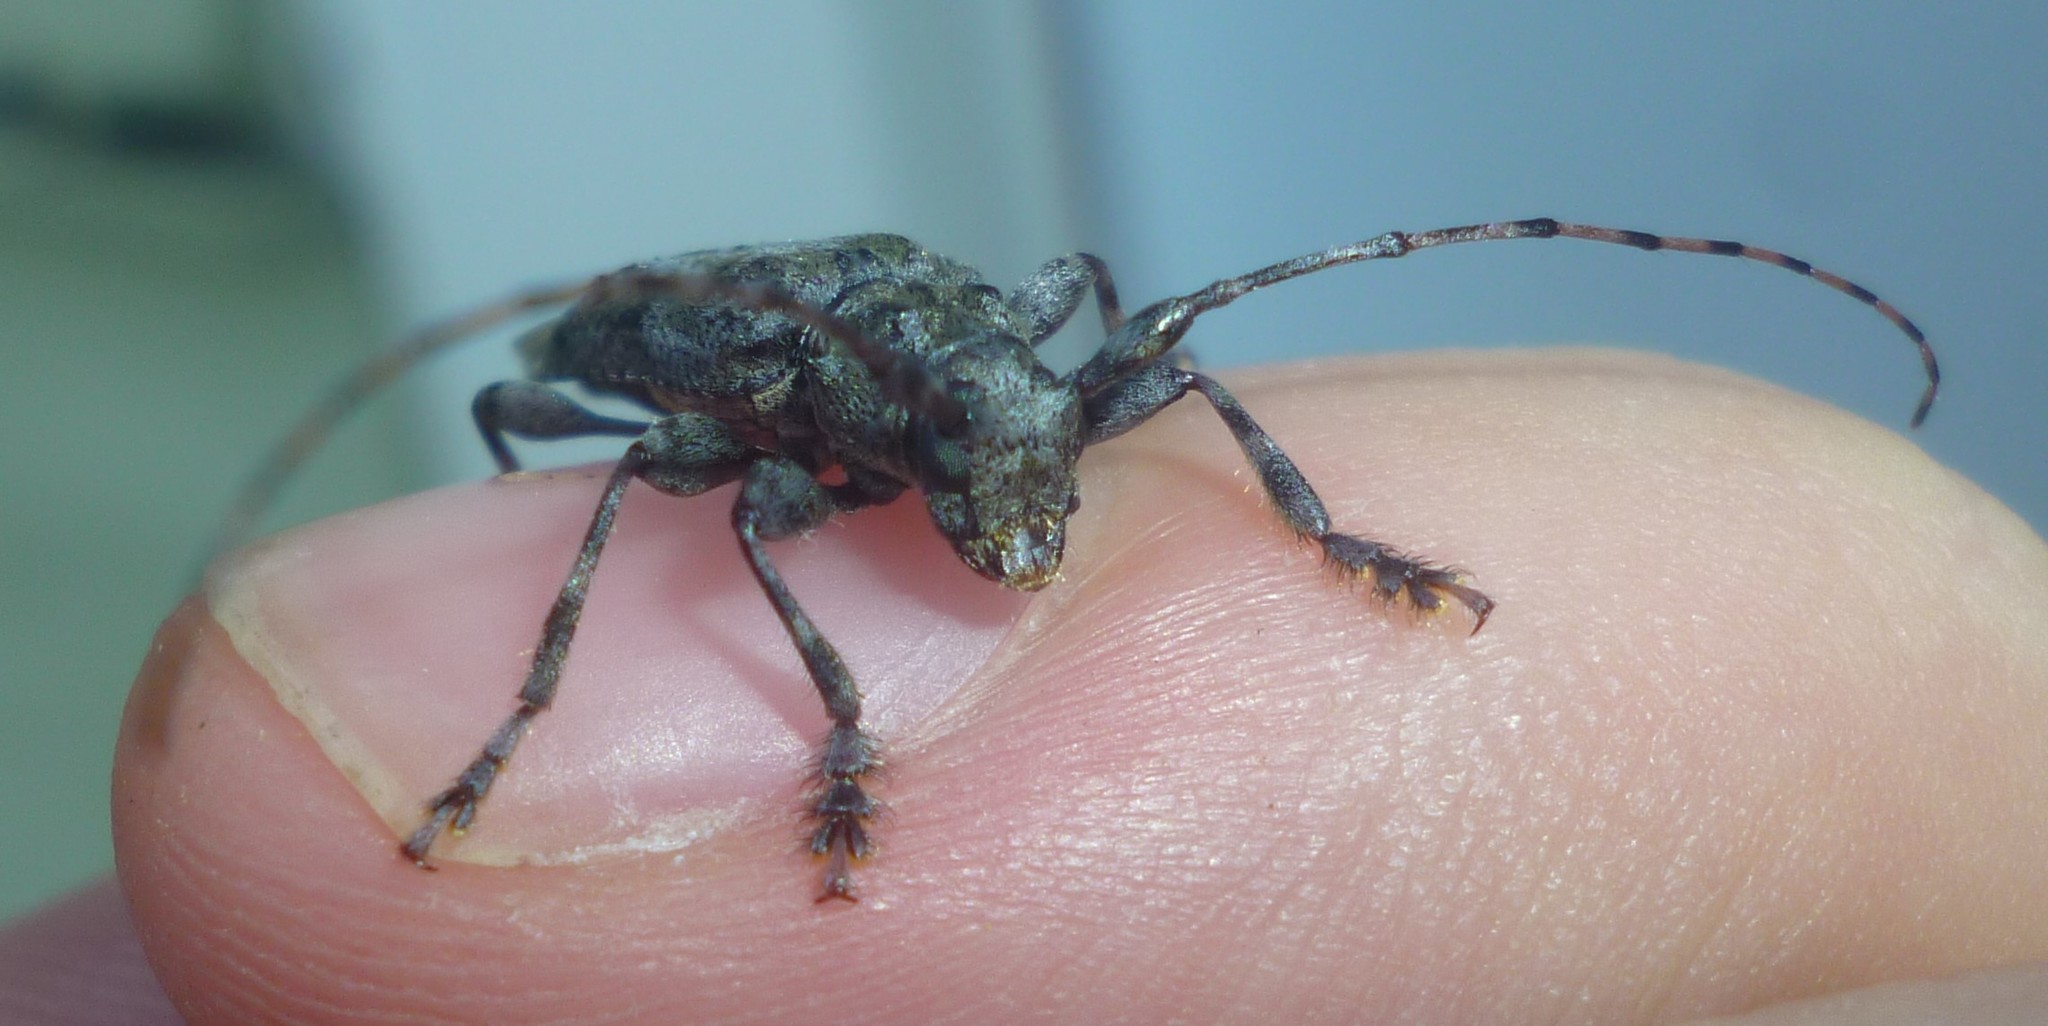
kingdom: Animalia
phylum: Arthropoda
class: Insecta
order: Coleoptera
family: Cerambycidae
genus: Aegomorphus
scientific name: Aegomorphus modestus
